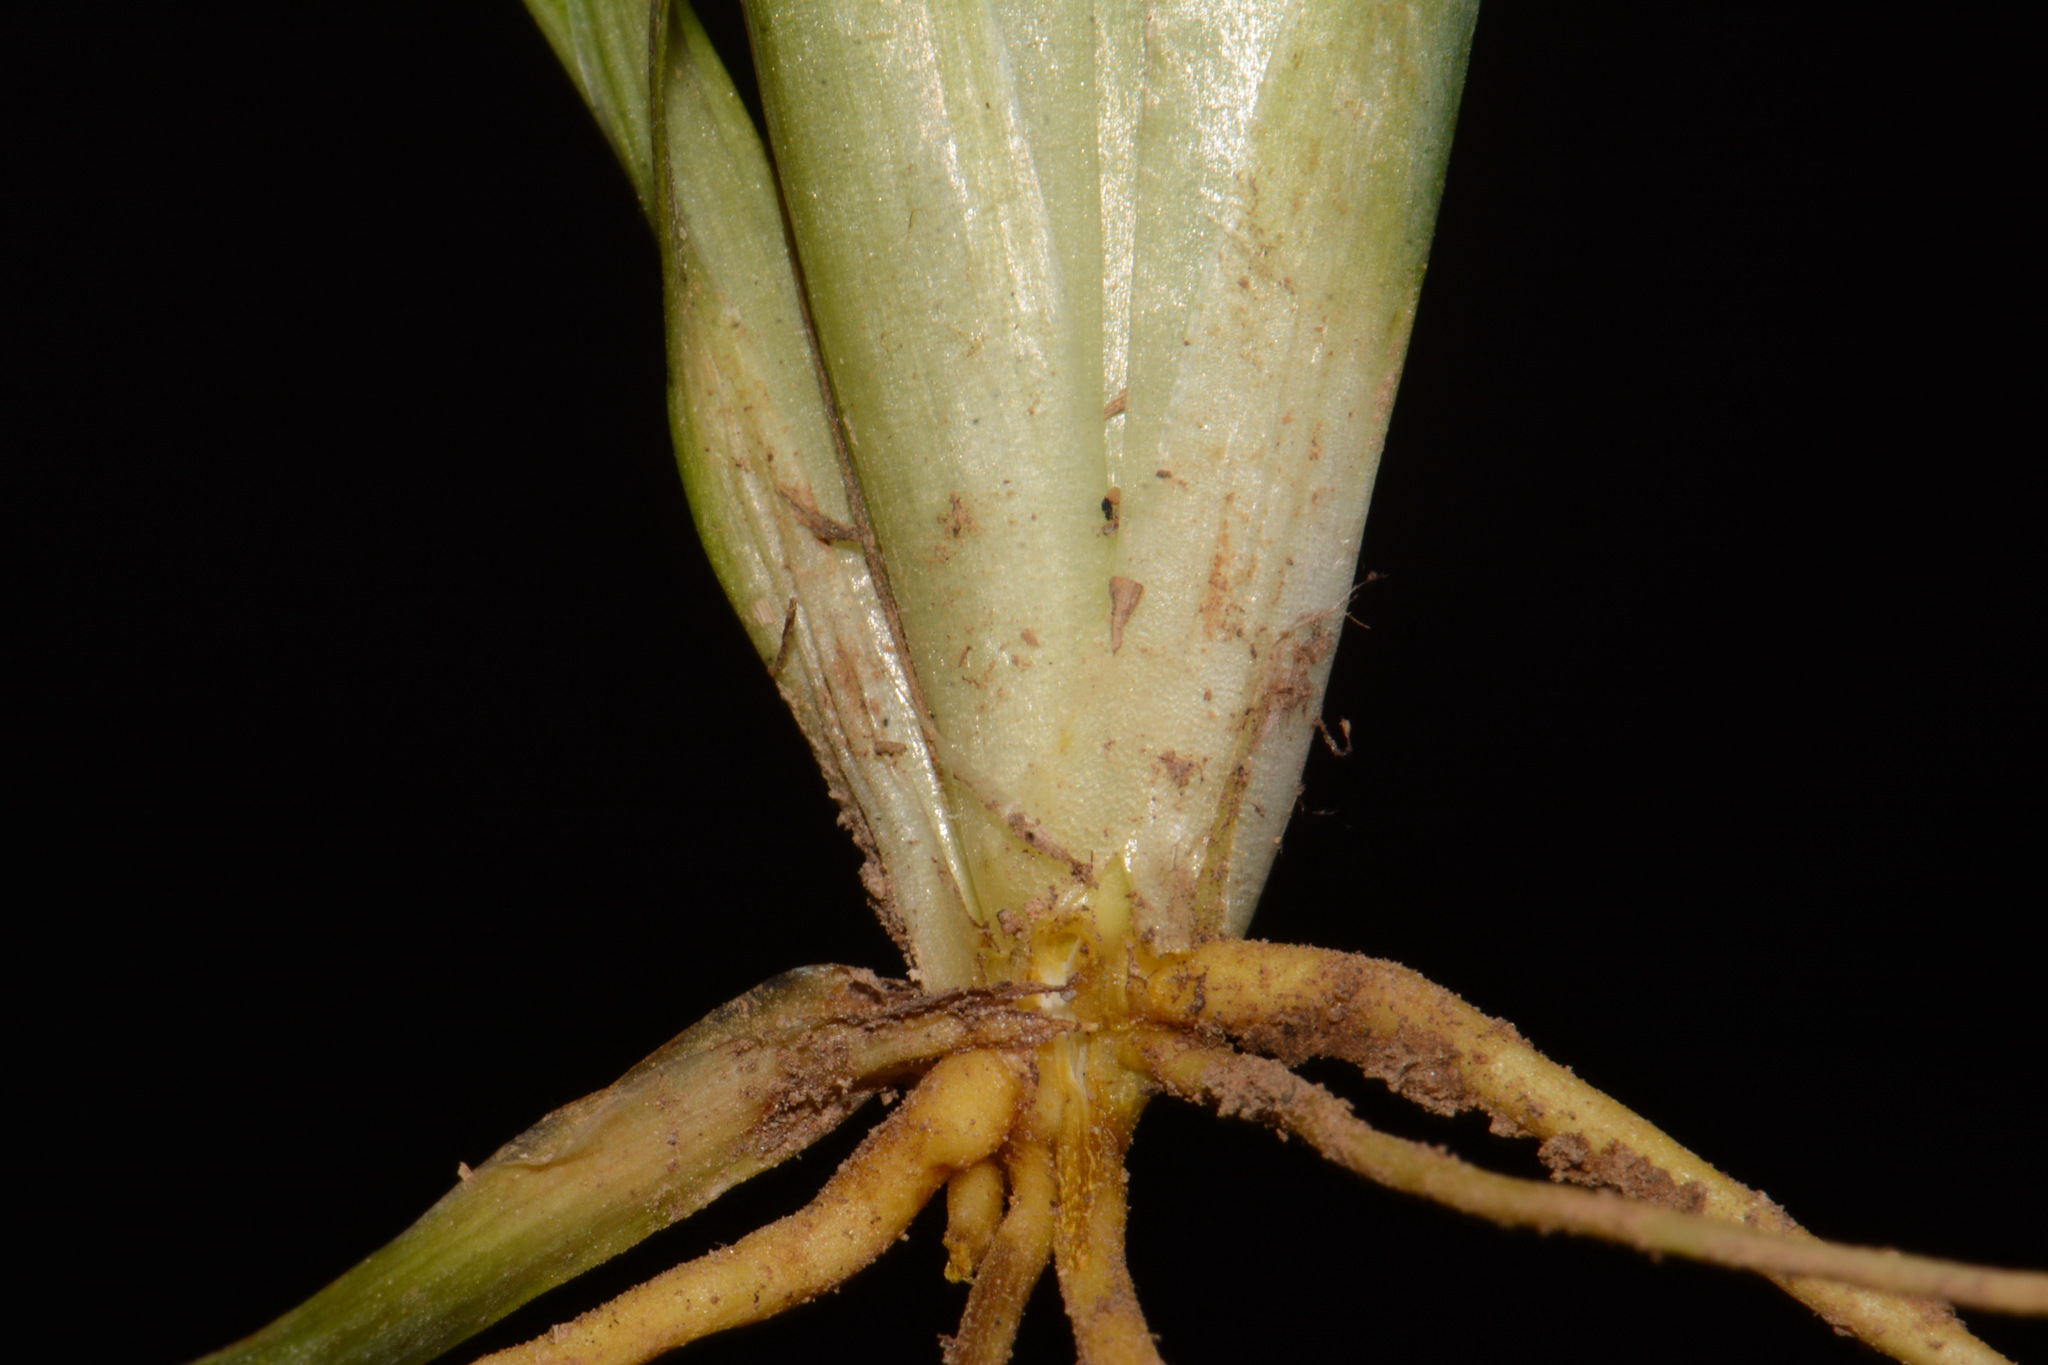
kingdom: Plantae
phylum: Tracheophyta
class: Liliopsida
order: Asparagales
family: Iridaceae
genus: Sisyrinchium
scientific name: Sisyrinchium angustifolium
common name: Narrow-leaf blue-eyed-grass
